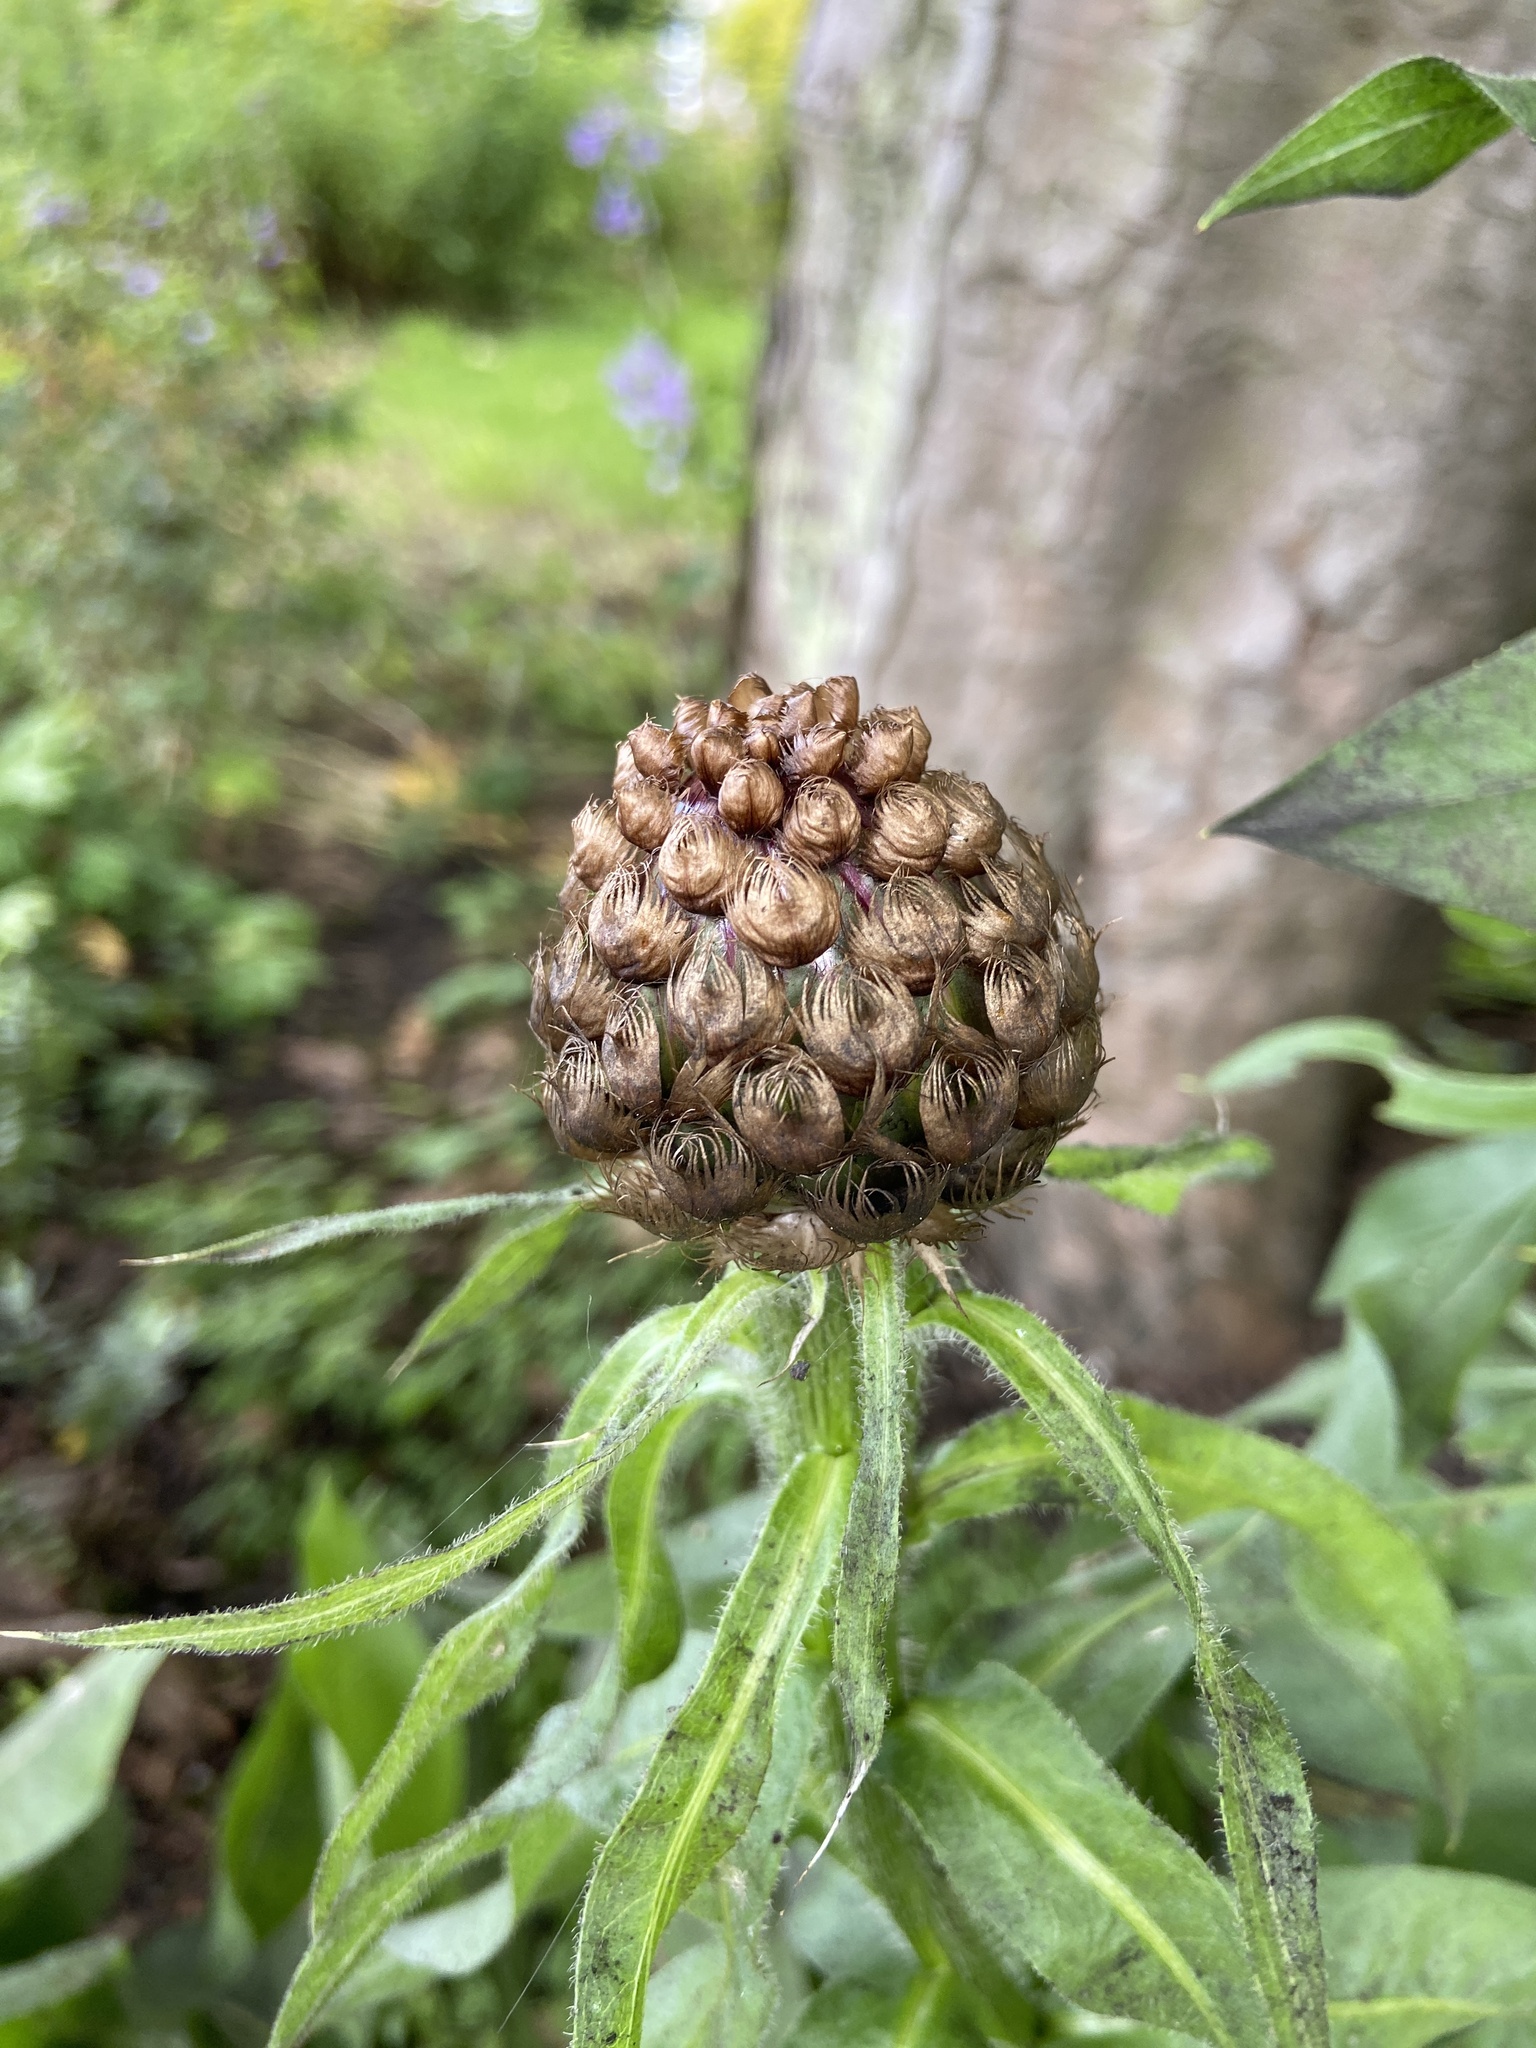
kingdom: Plantae
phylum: Tracheophyta
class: Magnoliopsida
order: Asterales
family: Asteraceae
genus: Centaurea
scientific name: Centaurea macrocephala
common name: Big-head knapweed
